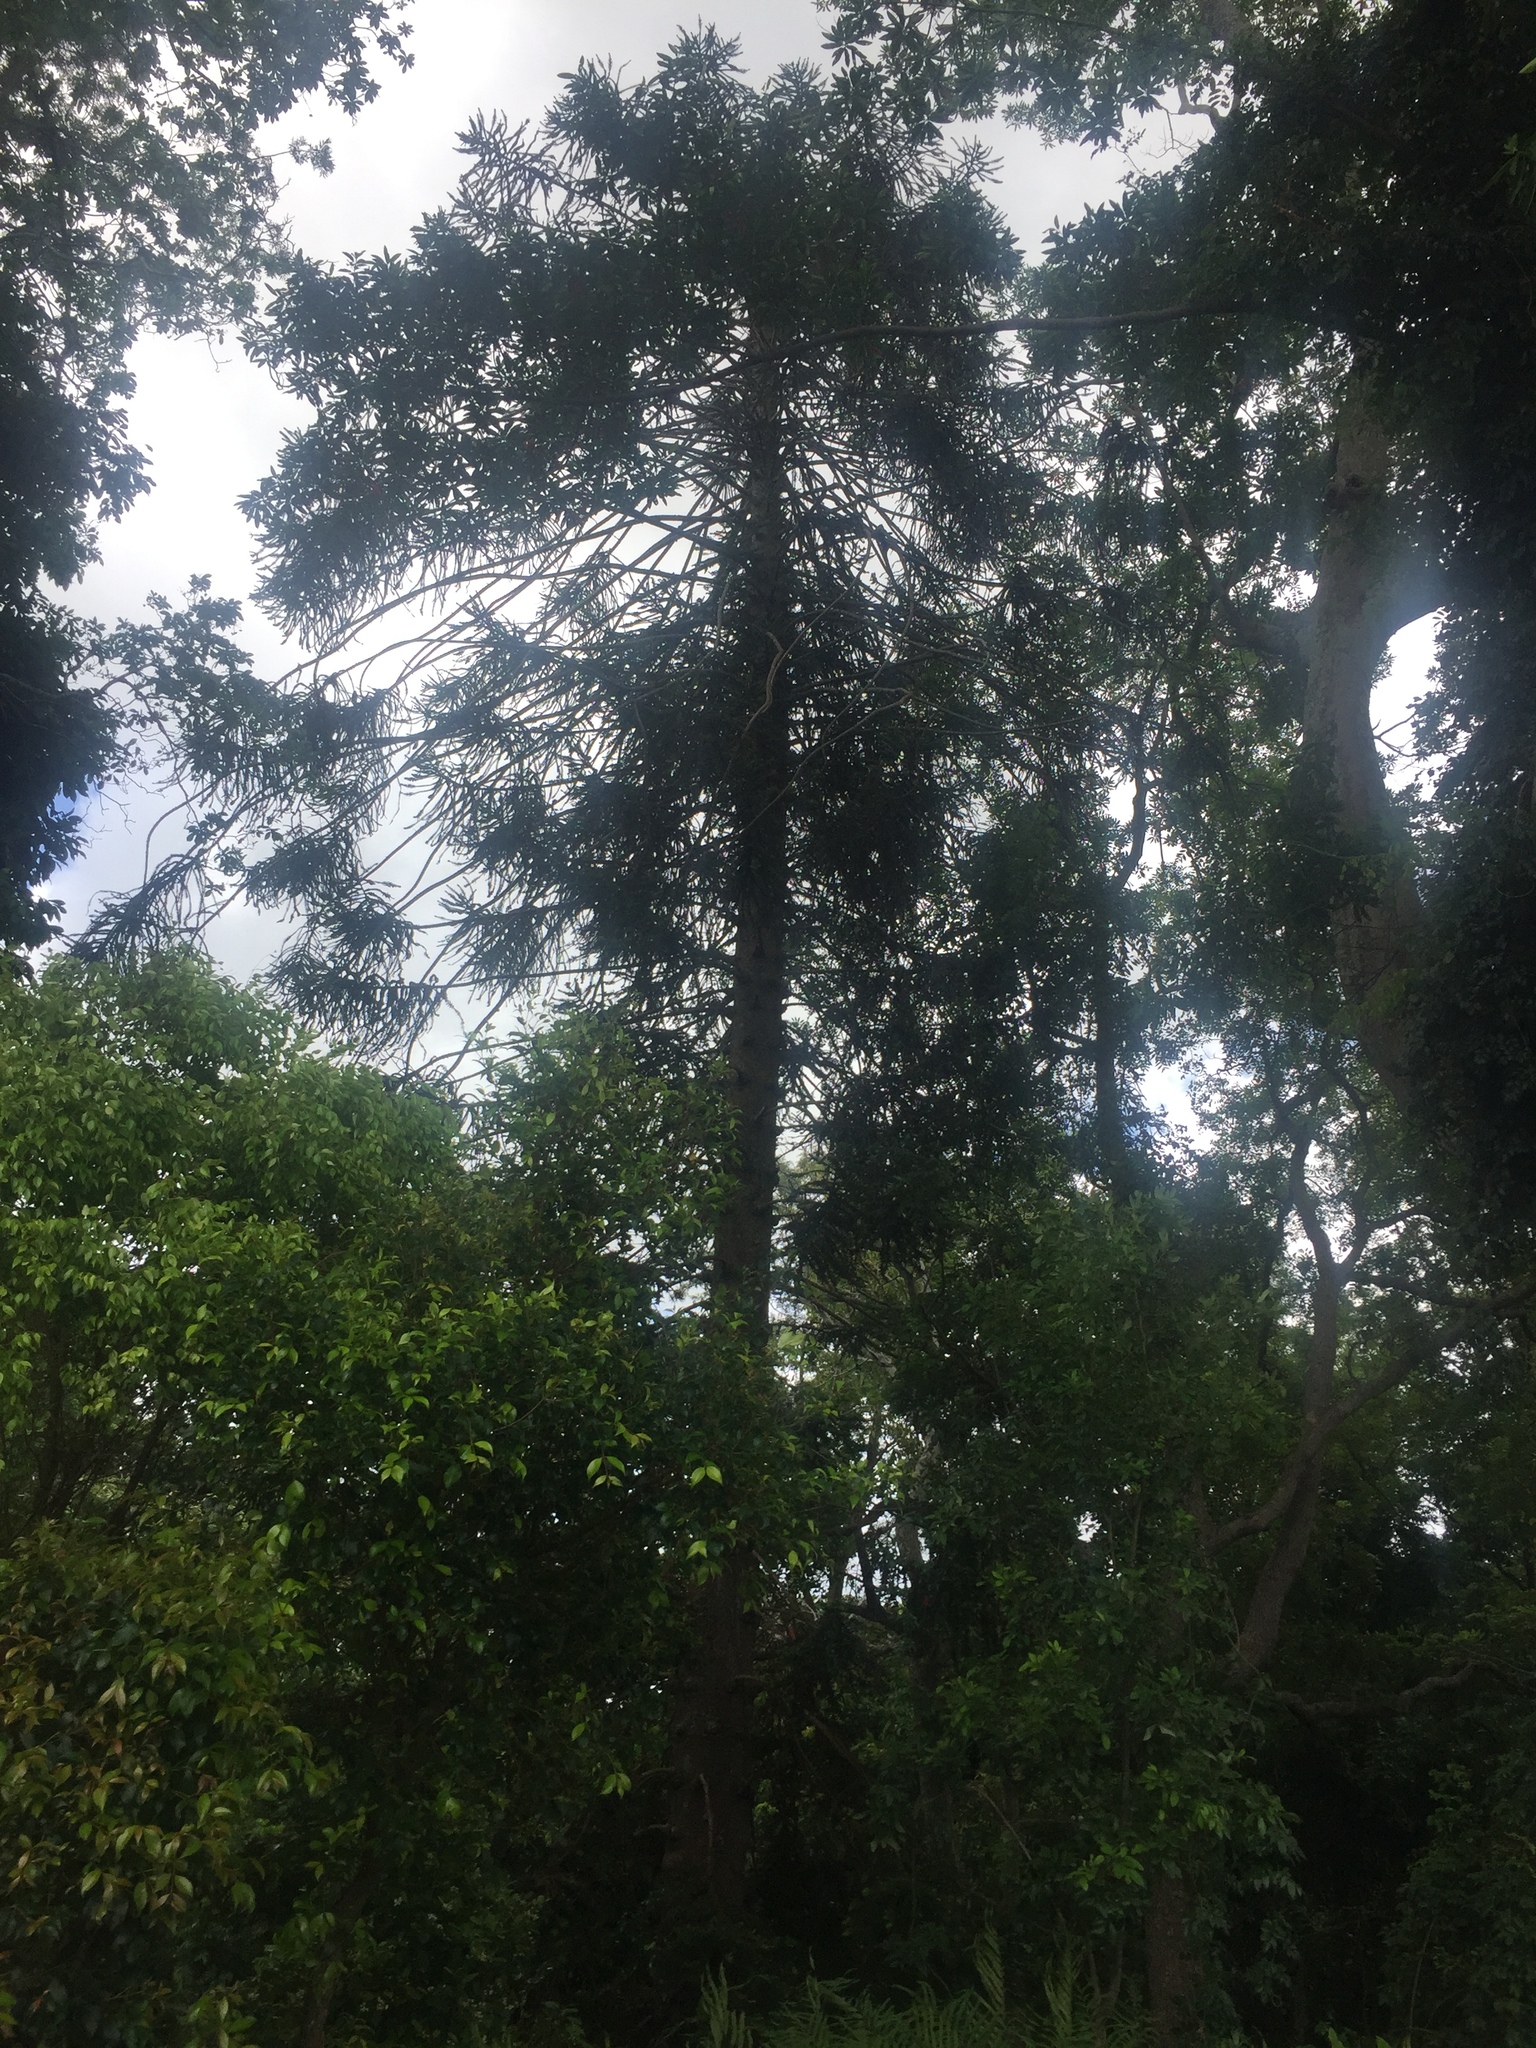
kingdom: Plantae
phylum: Tracheophyta
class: Pinopsida
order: Pinales
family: Araucariaceae
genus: Araucaria
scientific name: Araucaria bidwillii
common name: Moreton-bay-pine
